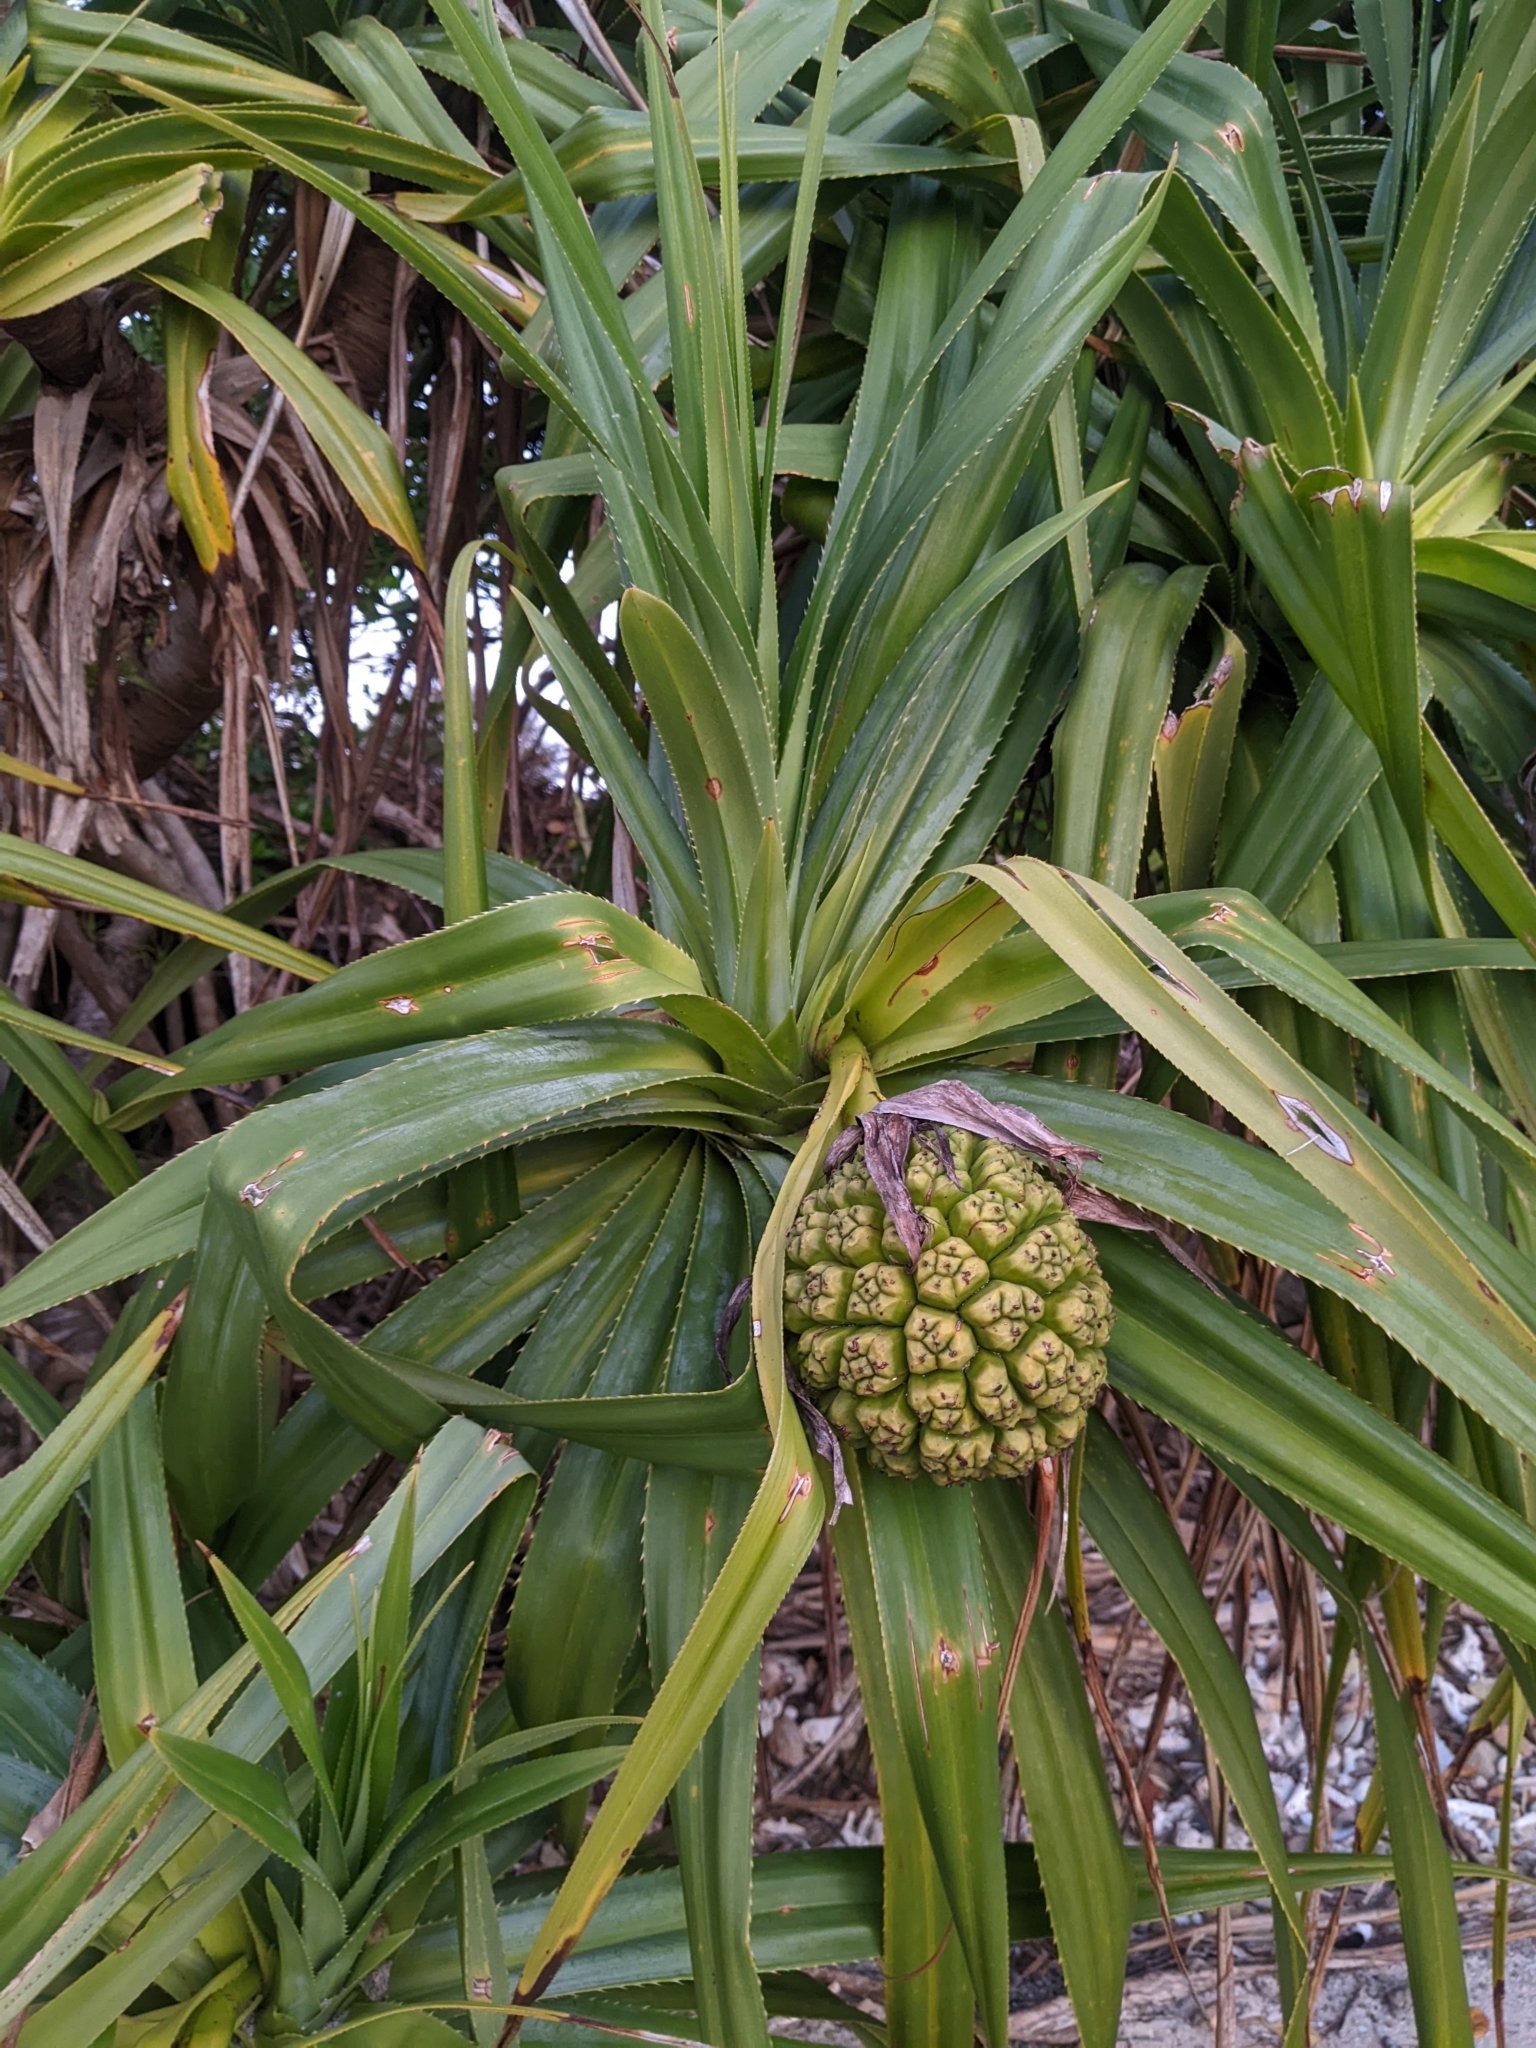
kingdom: Plantae
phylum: Tracheophyta
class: Liliopsida
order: Pandanales
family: Pandanaceae
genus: Pandanus
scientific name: Pandanus odorifer
